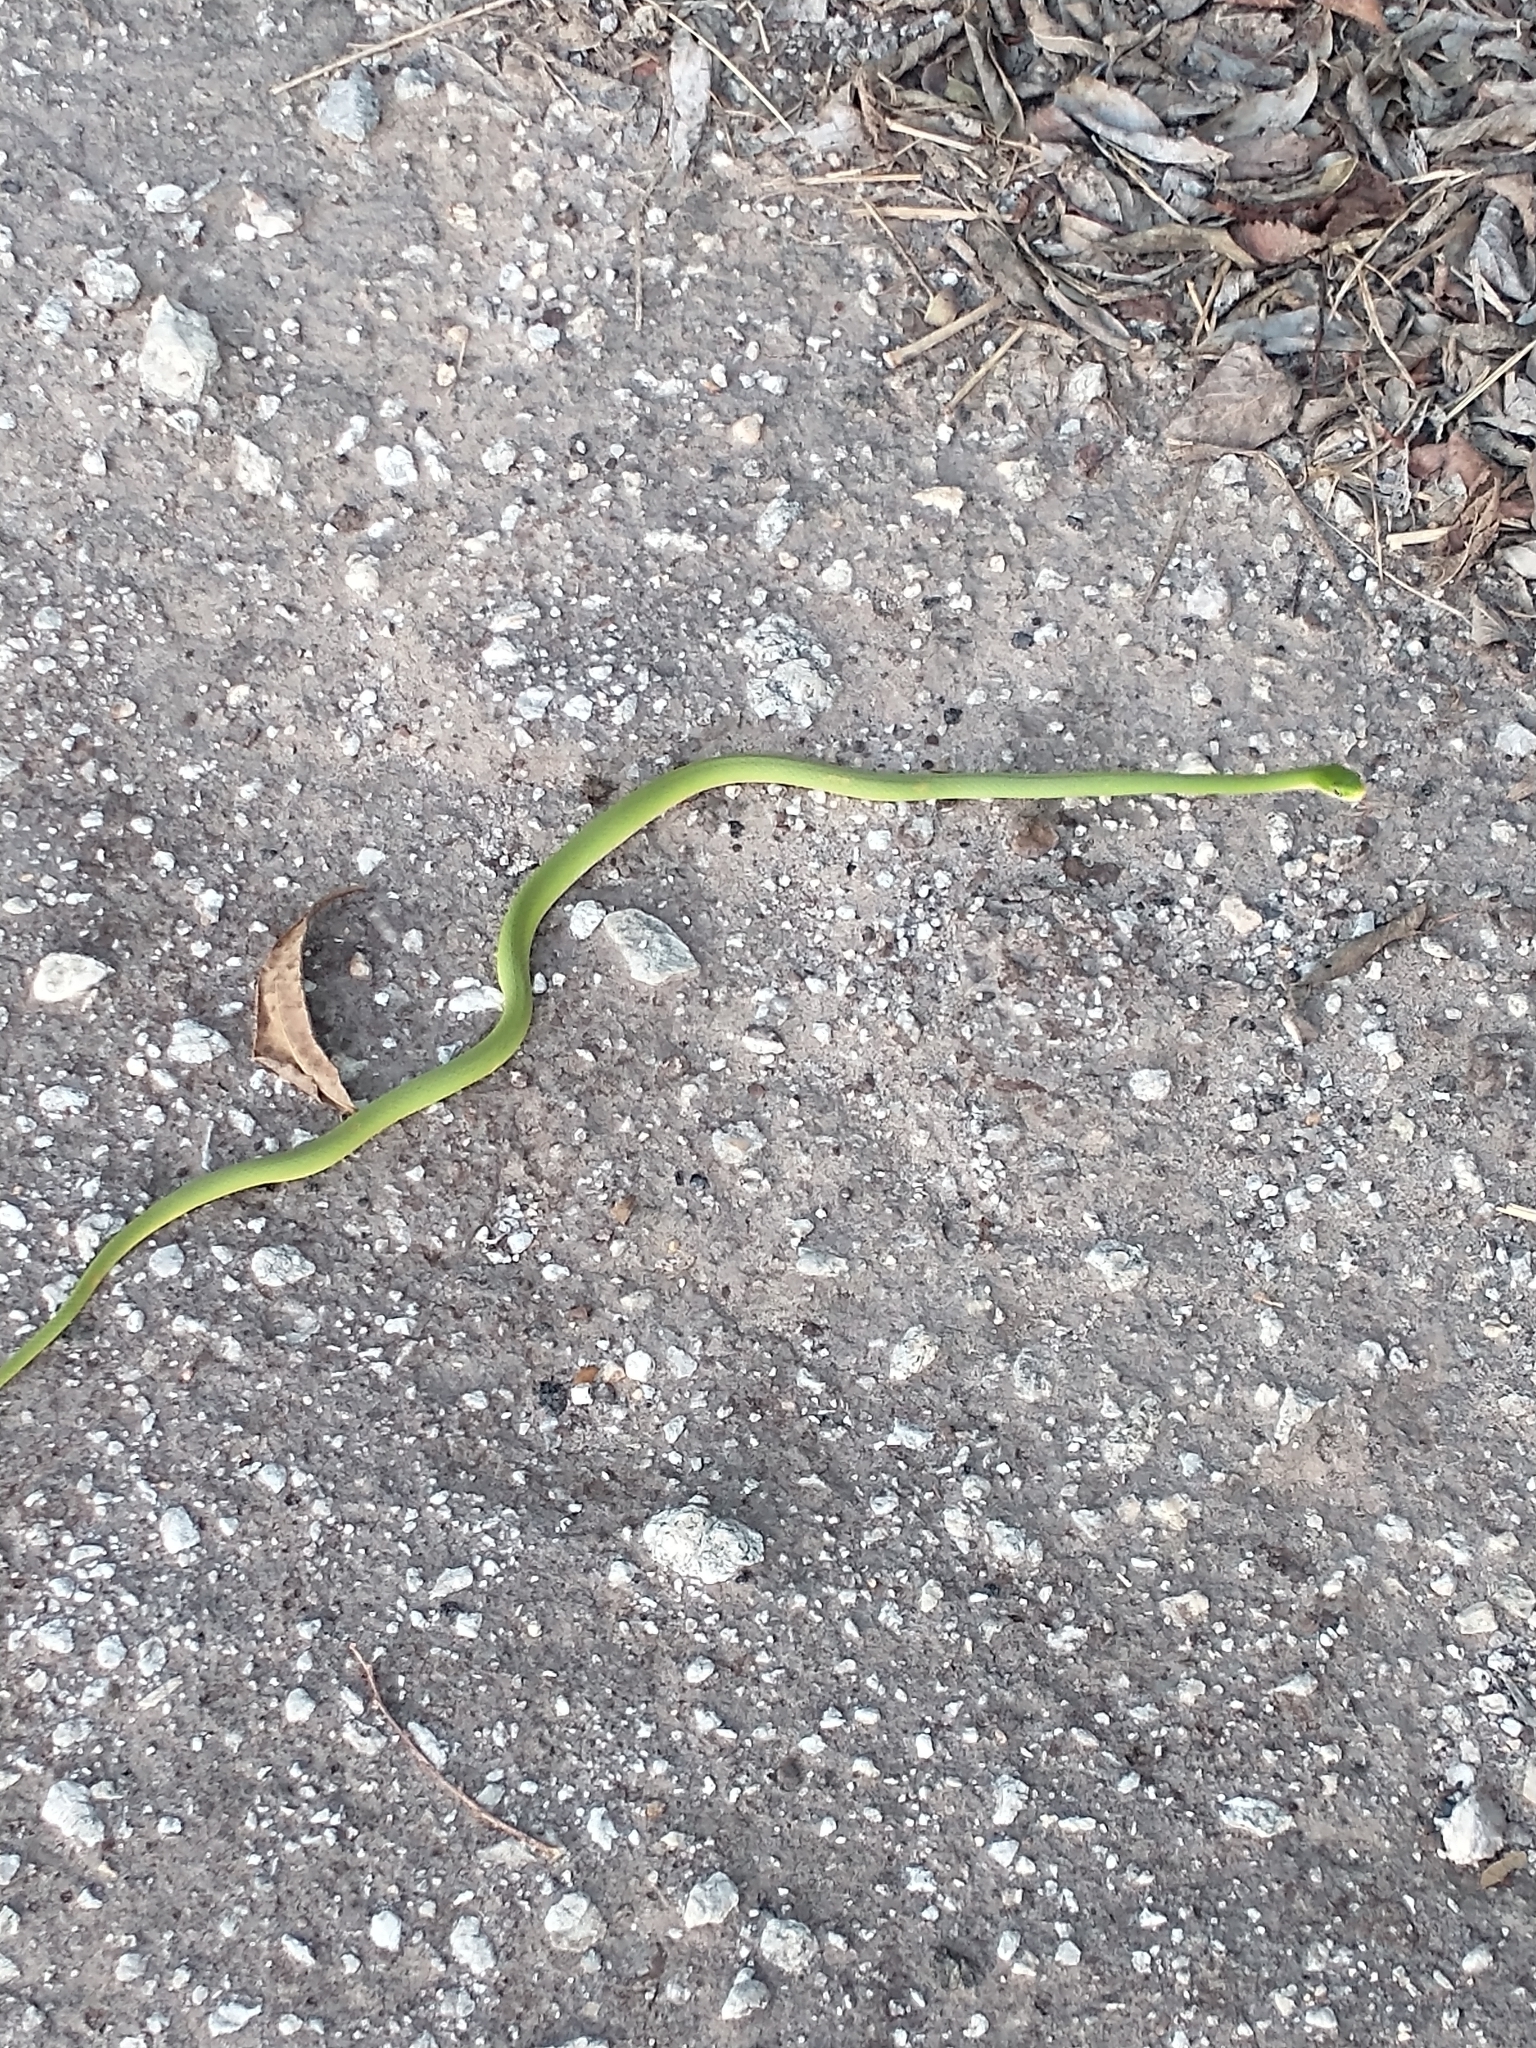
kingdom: Animalia
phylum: Chordata
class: Squamata
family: Colubridae
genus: Opheodrys
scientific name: Opheodrys aestivus
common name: Rough greensnake
